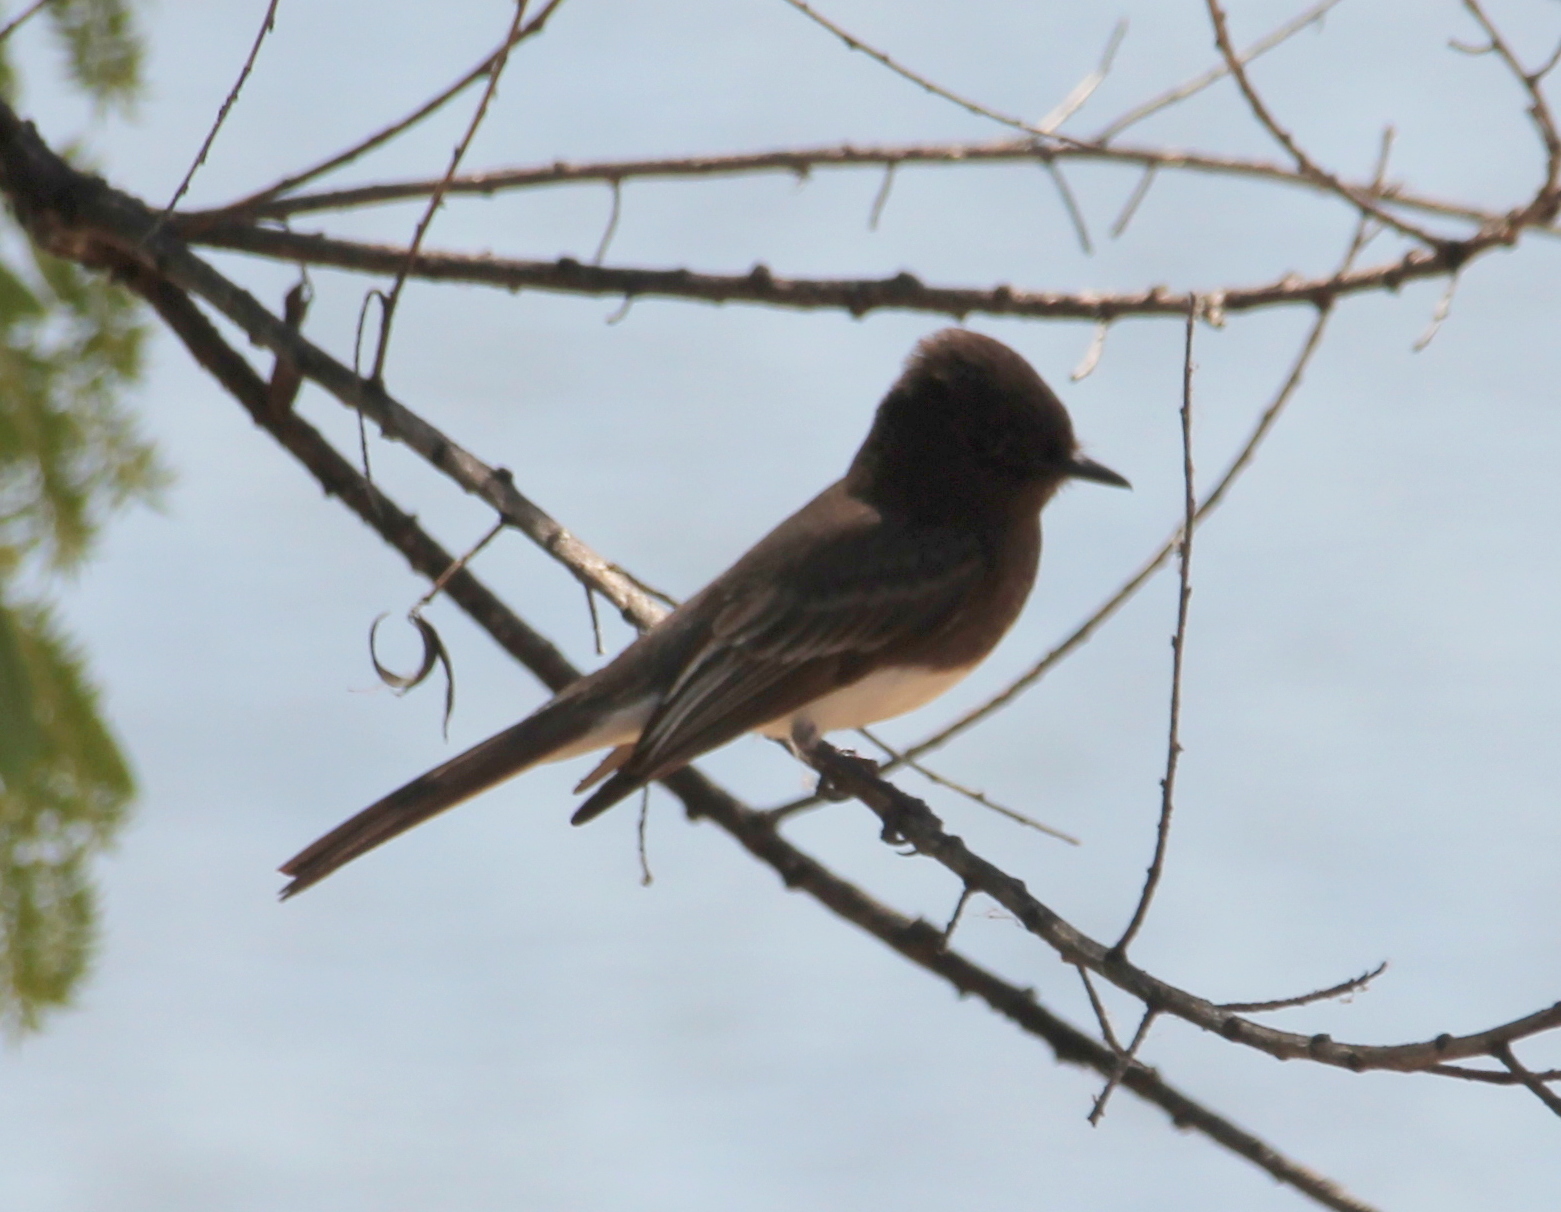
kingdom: Animalia
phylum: Chordata
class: Aves
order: Passeriformes
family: Tyrannidae
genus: Sayornis
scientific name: Sayornis nigricans
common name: Black phoebe
